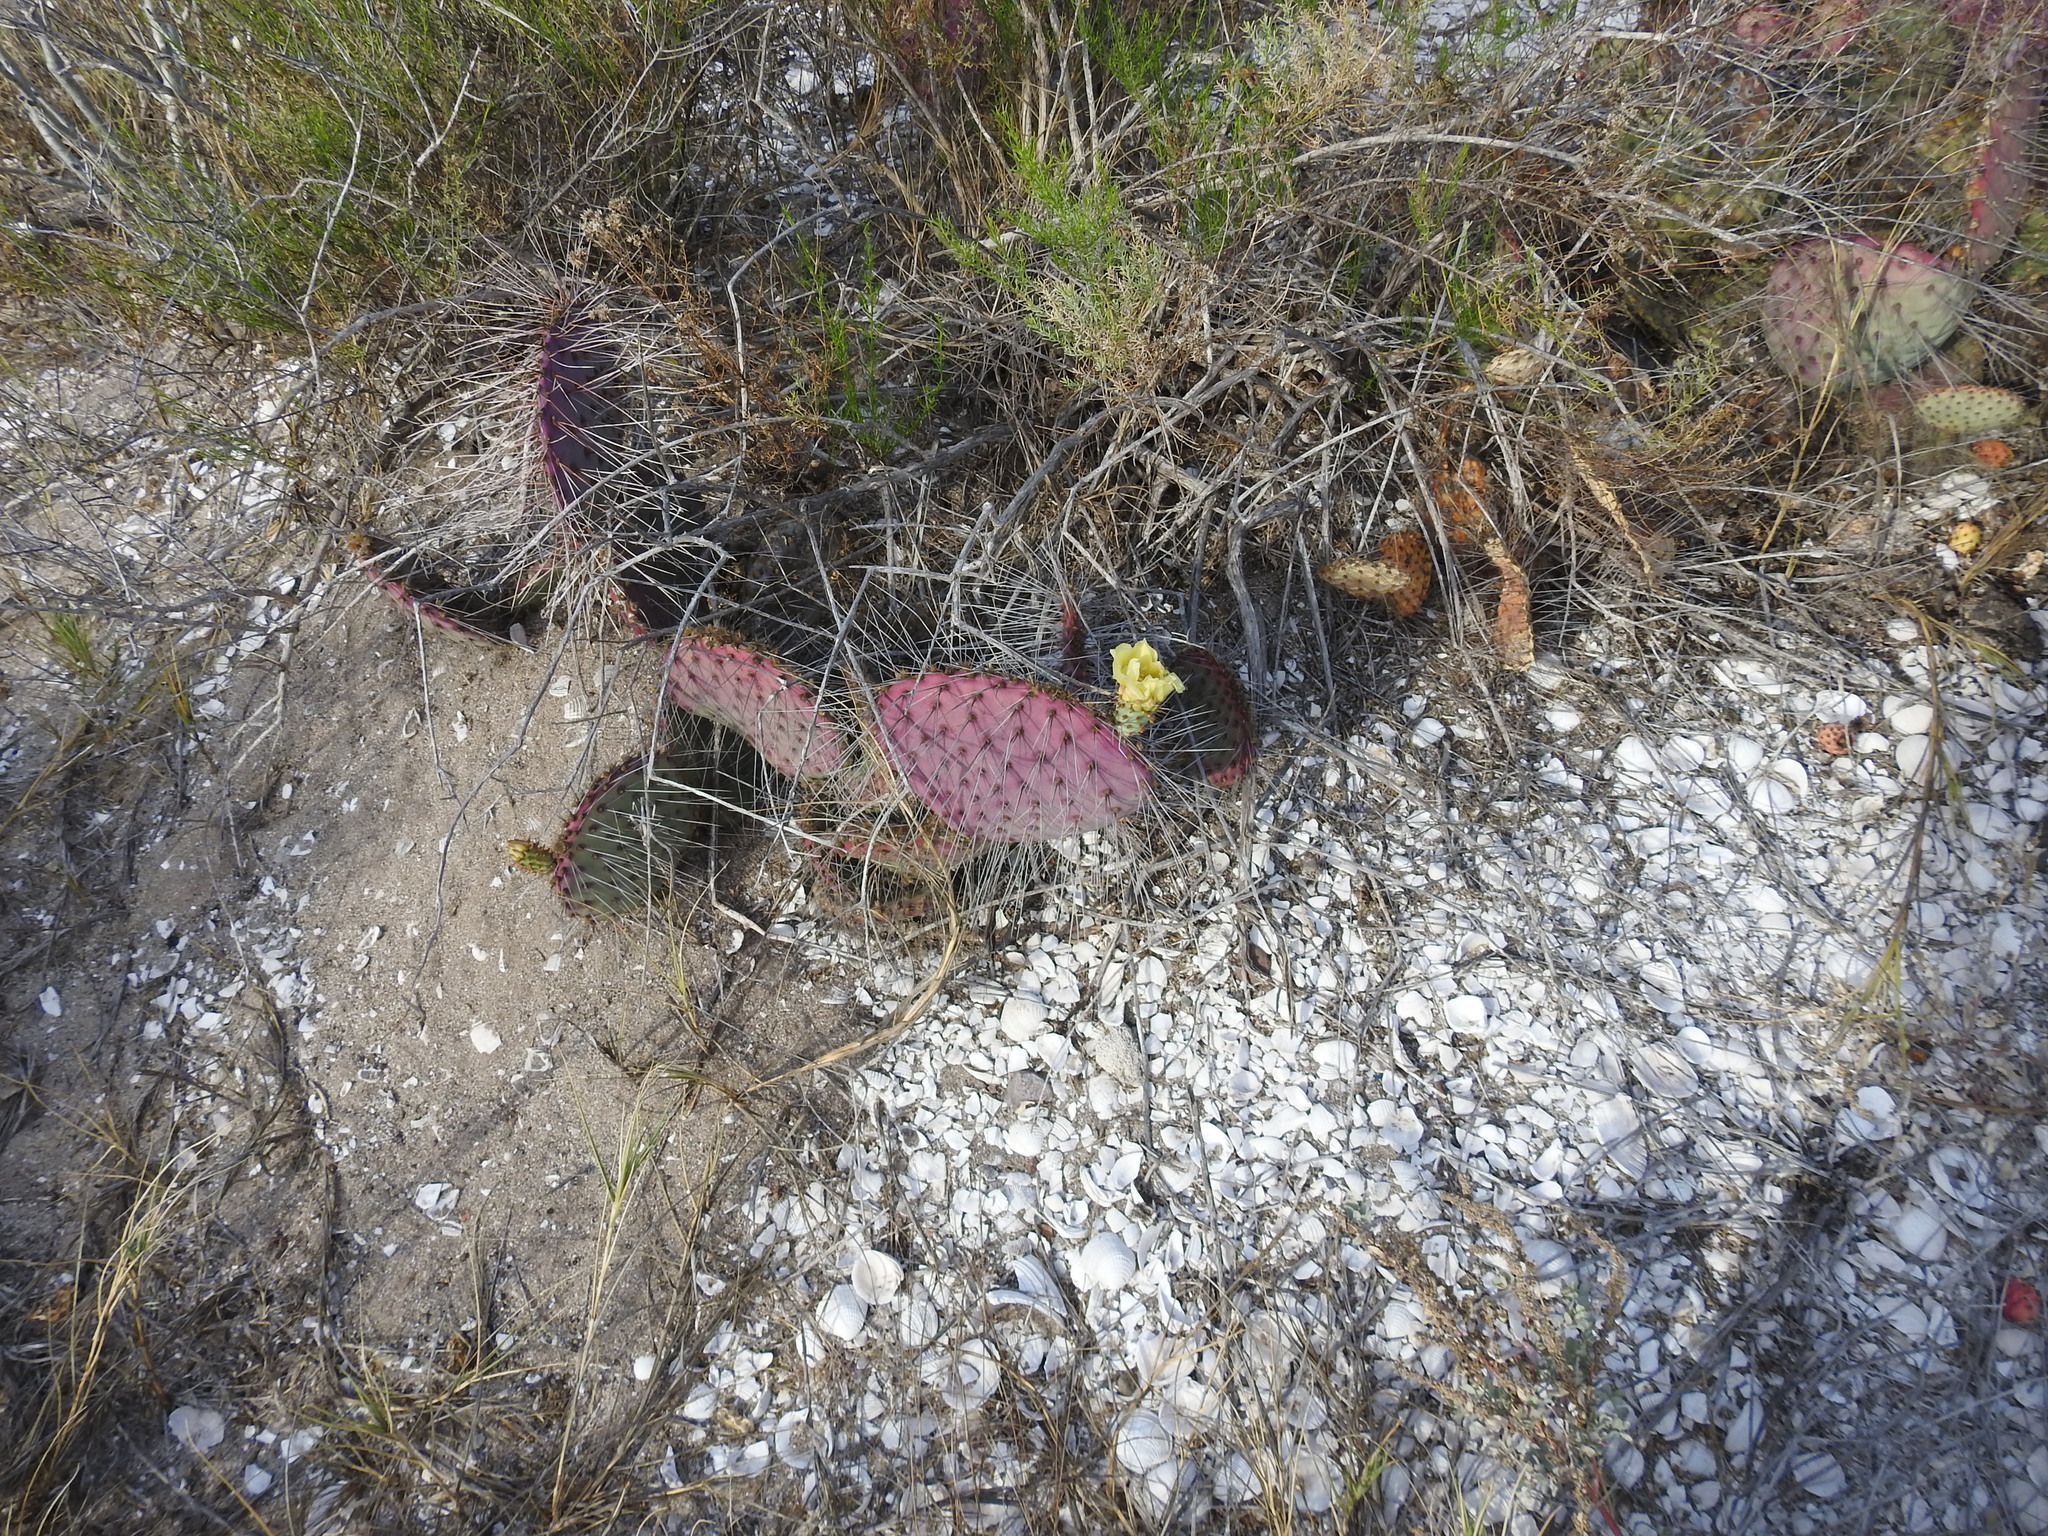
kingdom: Plantae
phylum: Tracheophyta
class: Magnoliopsida
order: Caryophyllales
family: Cactaceae
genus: Opuntia
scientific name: Opuntia gosseliniana
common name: Violet prickly-pear
